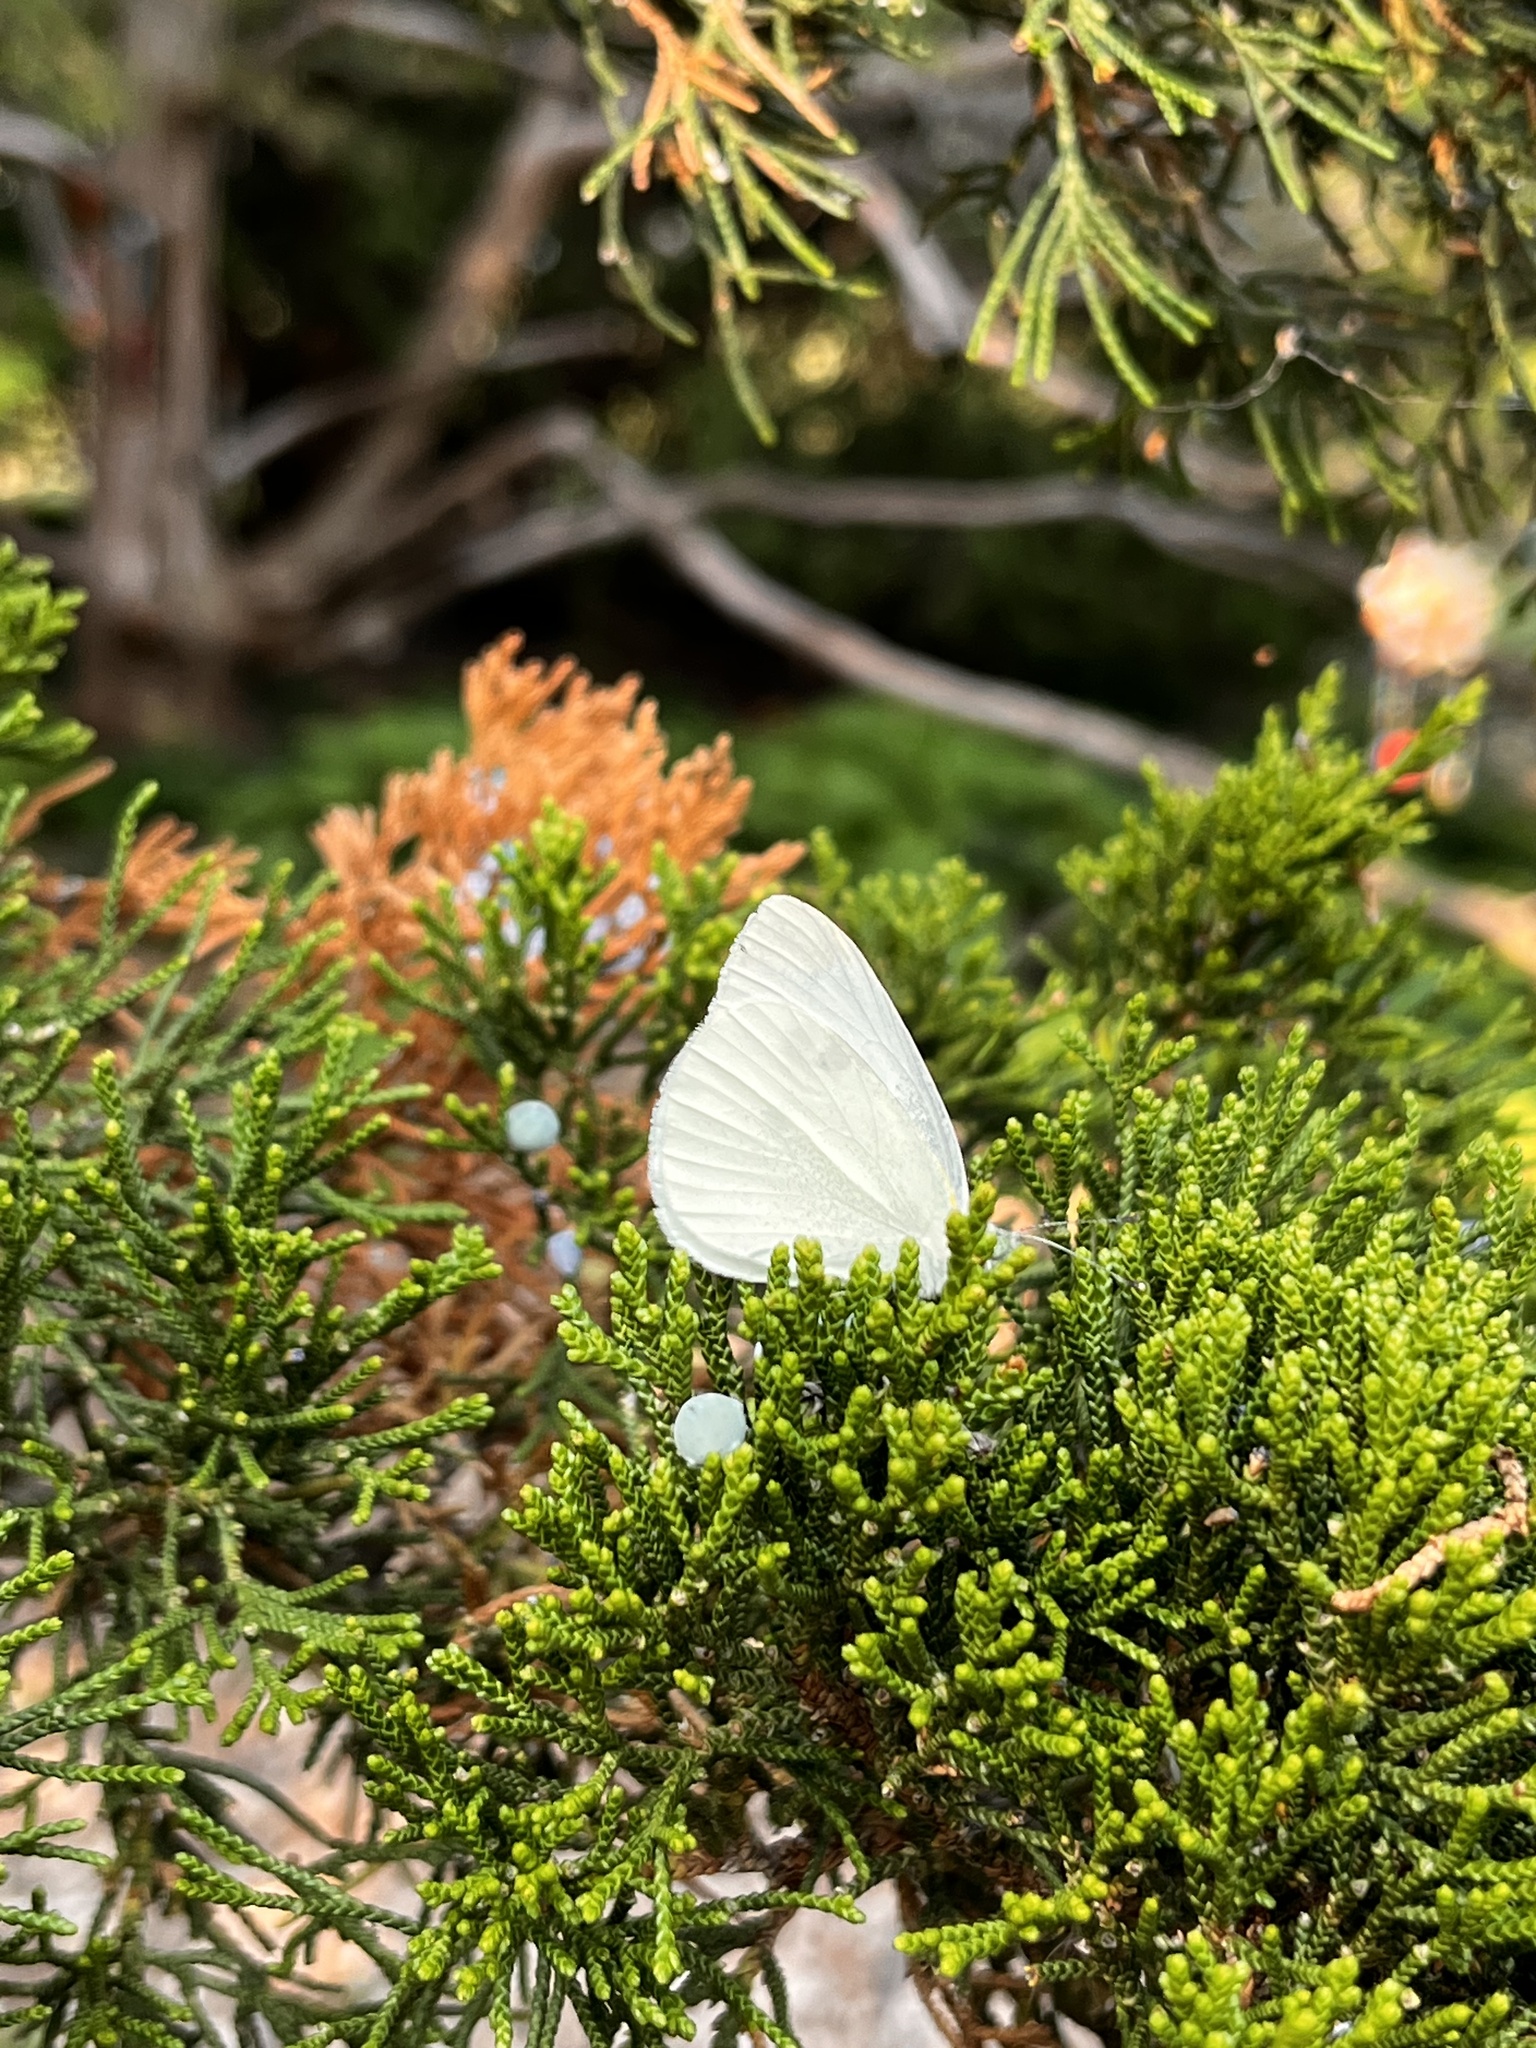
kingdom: Animalia
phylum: Arthropoda
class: Insecta
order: Lepidoptera
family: Pieridae
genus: Pieris
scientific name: Pieris rapae
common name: Small white
